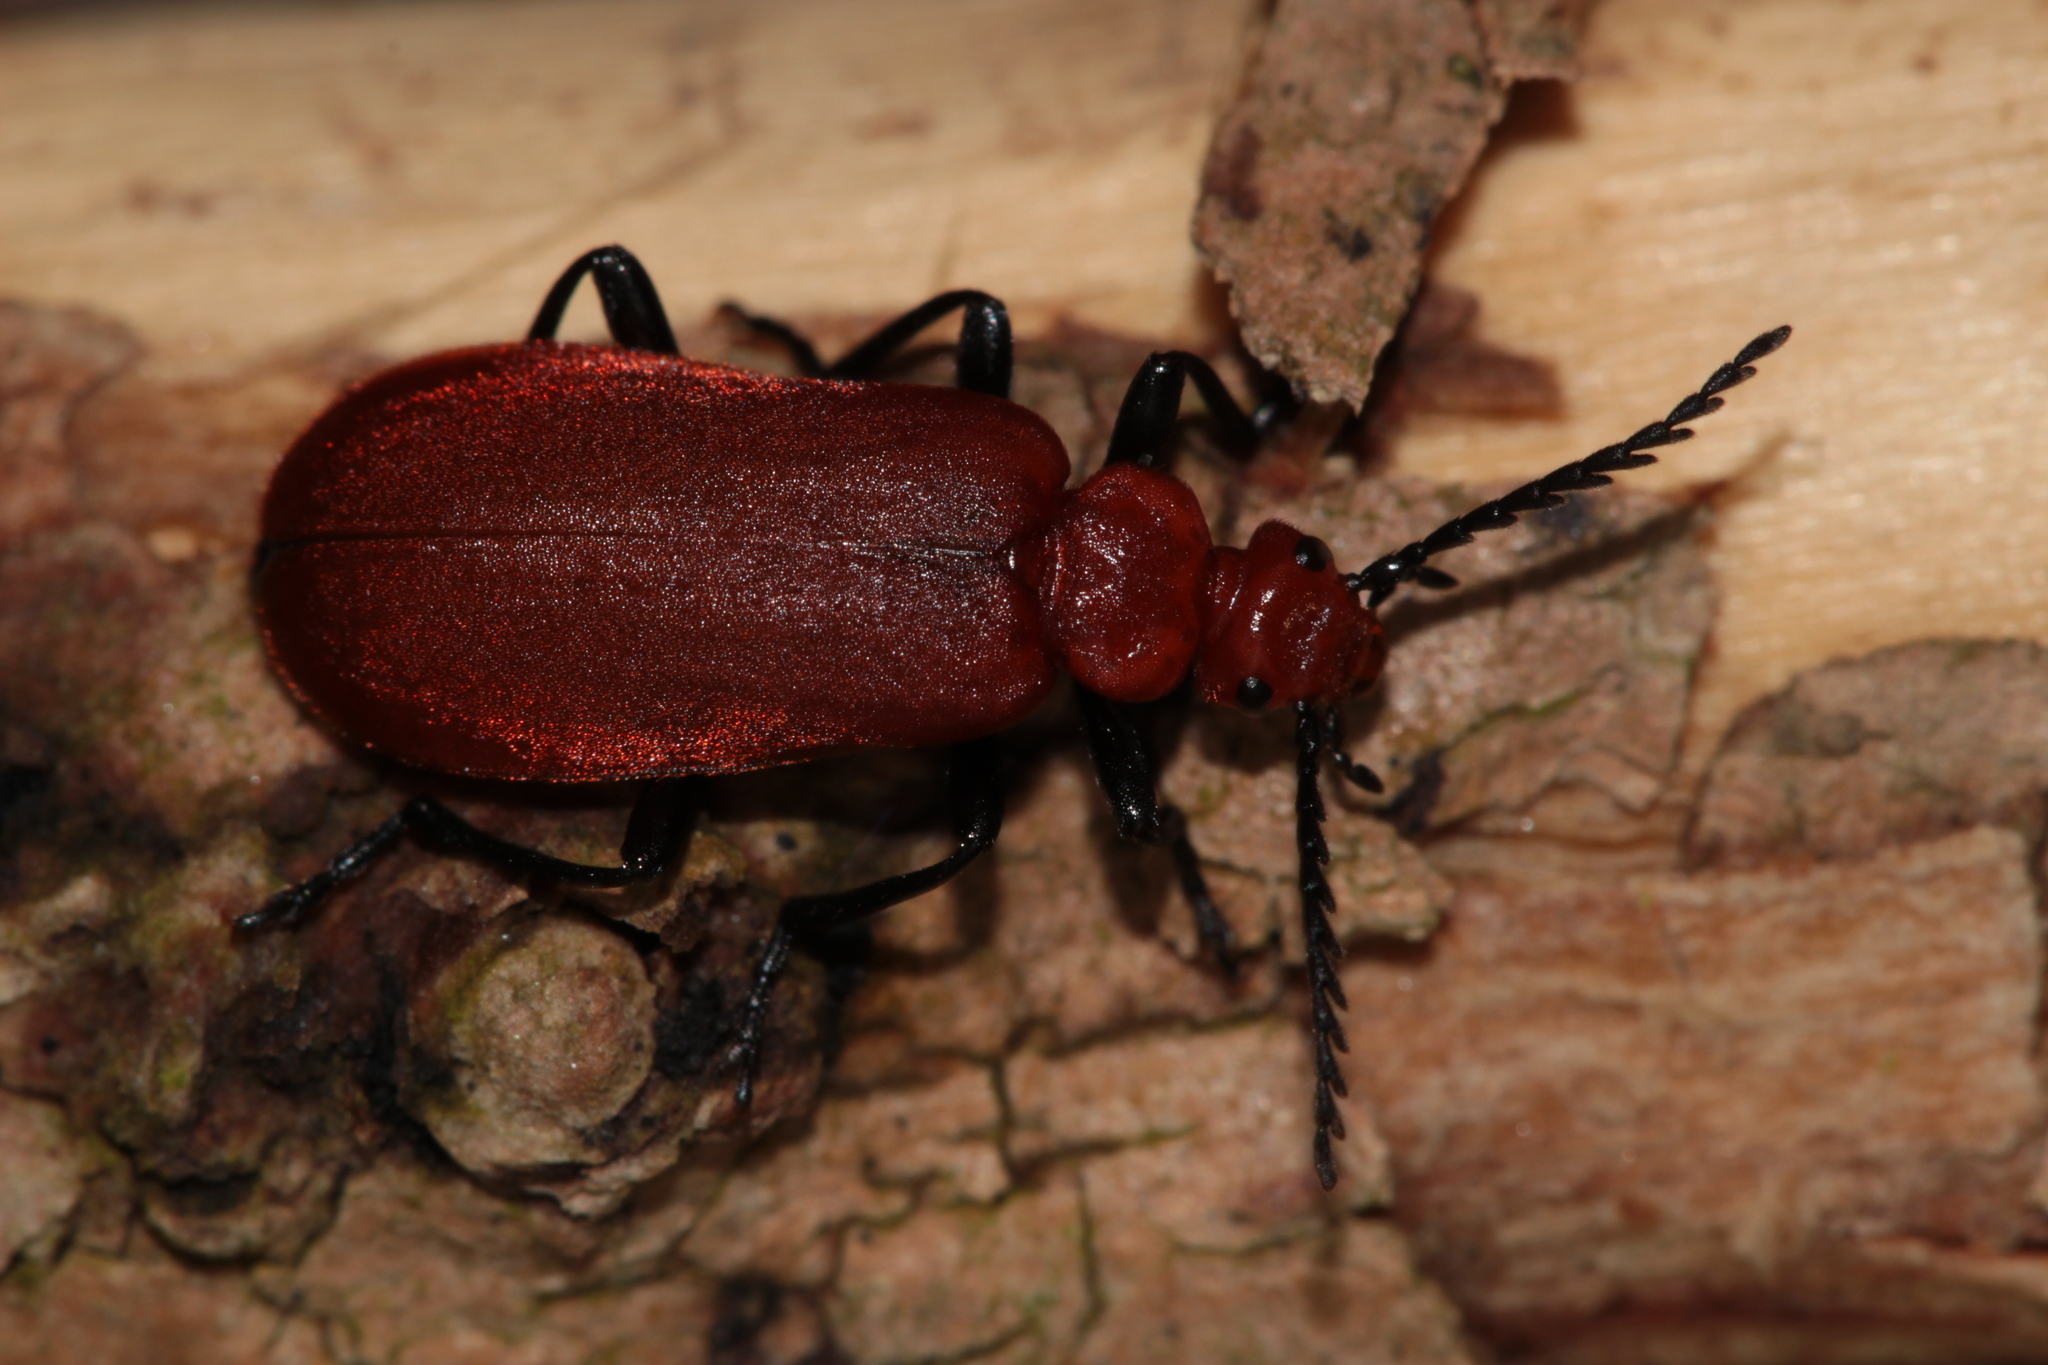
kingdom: Animalia
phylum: Arthropoda
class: Insecta
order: Coleoptera
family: Pyrochroidae
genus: Pyrochroa
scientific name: Pyrochroa serraticornis
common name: Red-headed cardinal beetle
